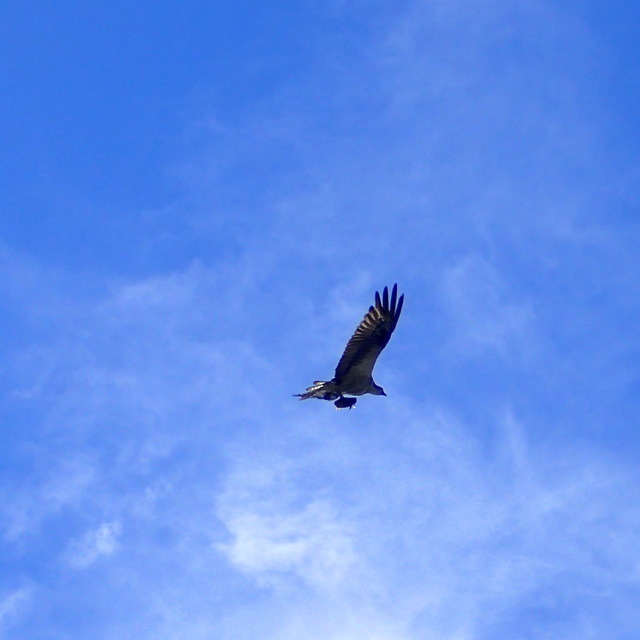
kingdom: Animalia
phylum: Chordata
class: Aves
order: Accipitriformes
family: Pandionidae
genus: Pandion
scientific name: Pandion haliaetus
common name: Osprey
